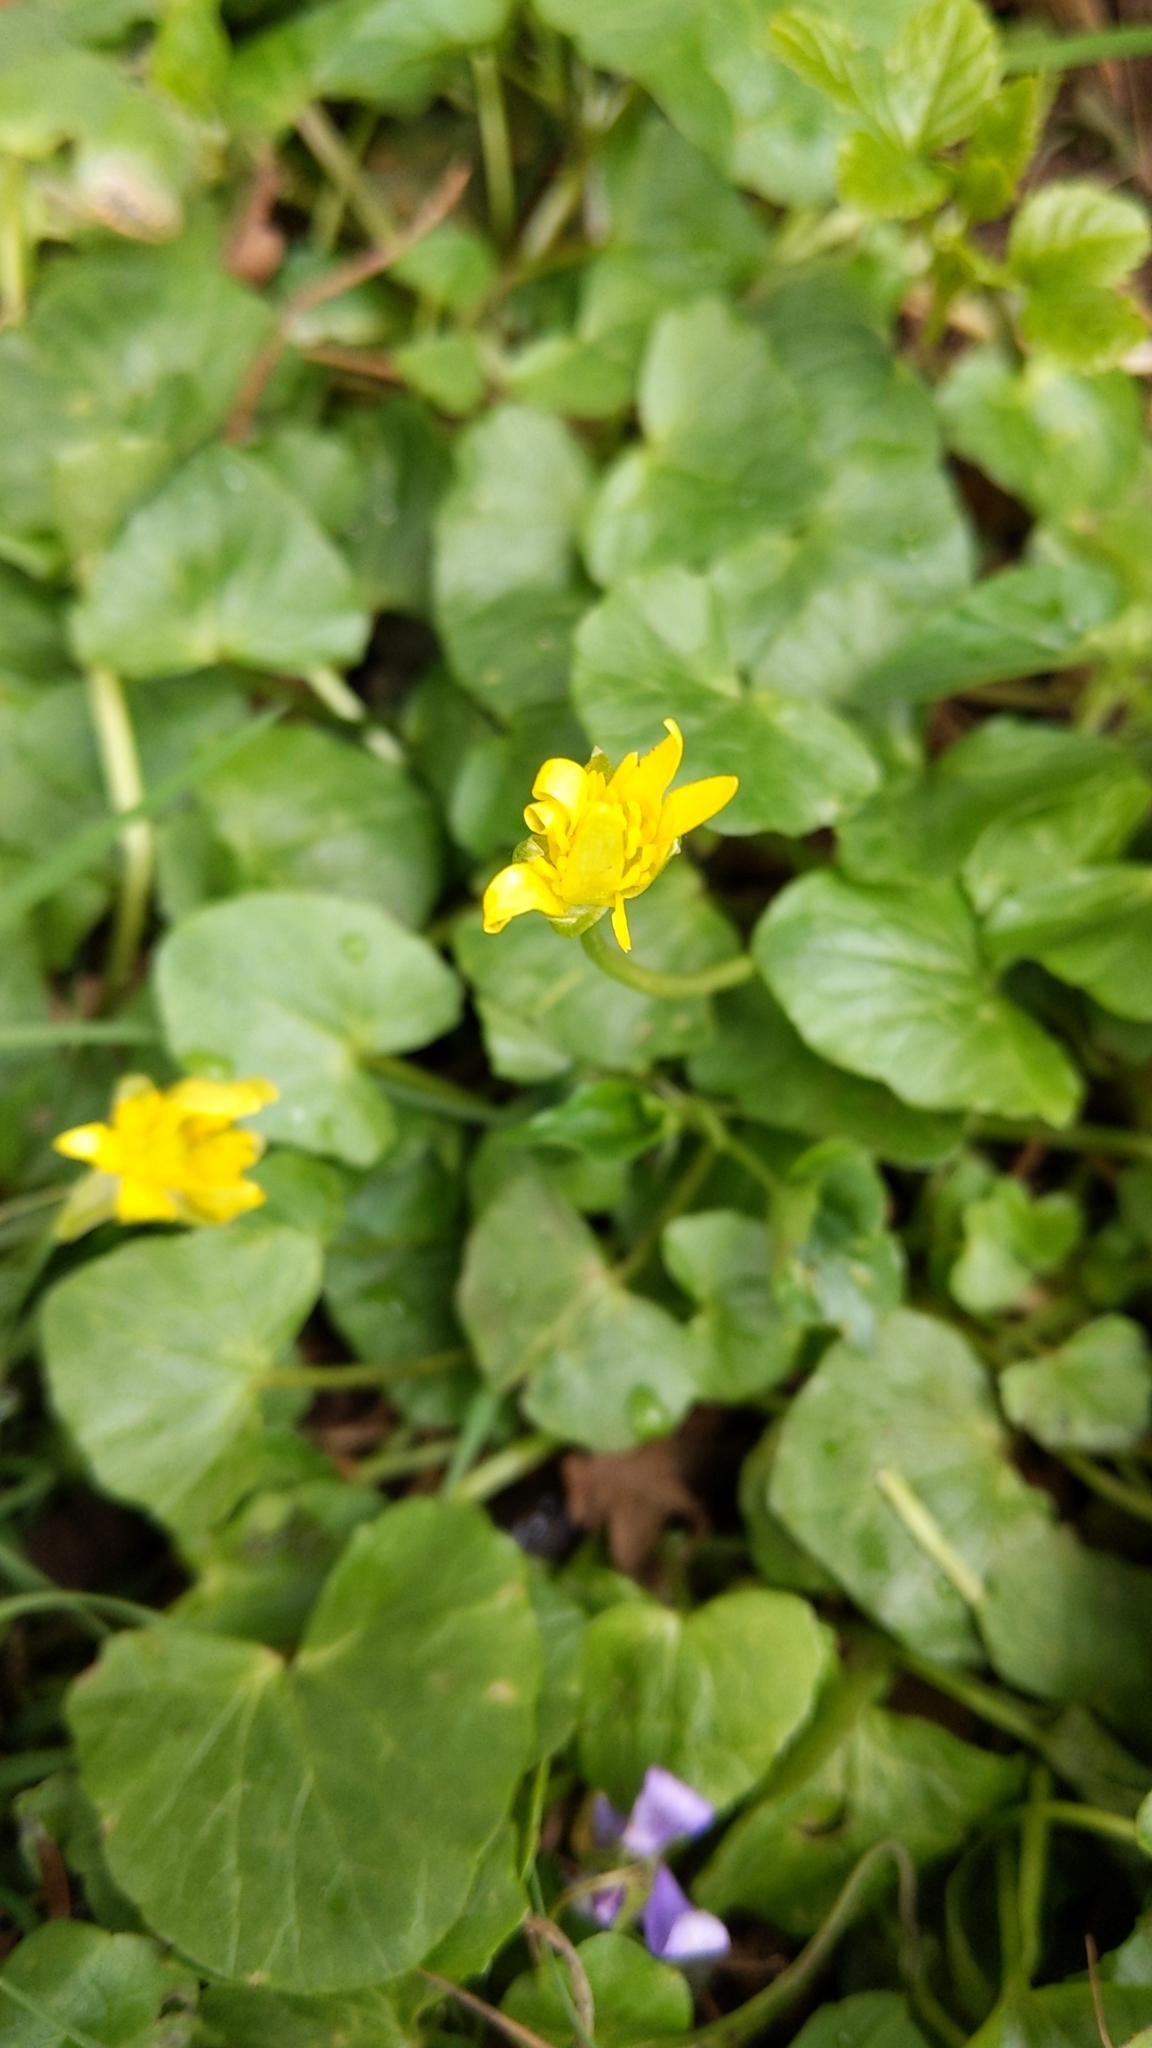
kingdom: Plantae
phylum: Tracheophyta
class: Magnoliopsida
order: Ranunculales
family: Ranunculaceae
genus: Ficaria
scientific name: Ficaria verna
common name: Lesser celandine
